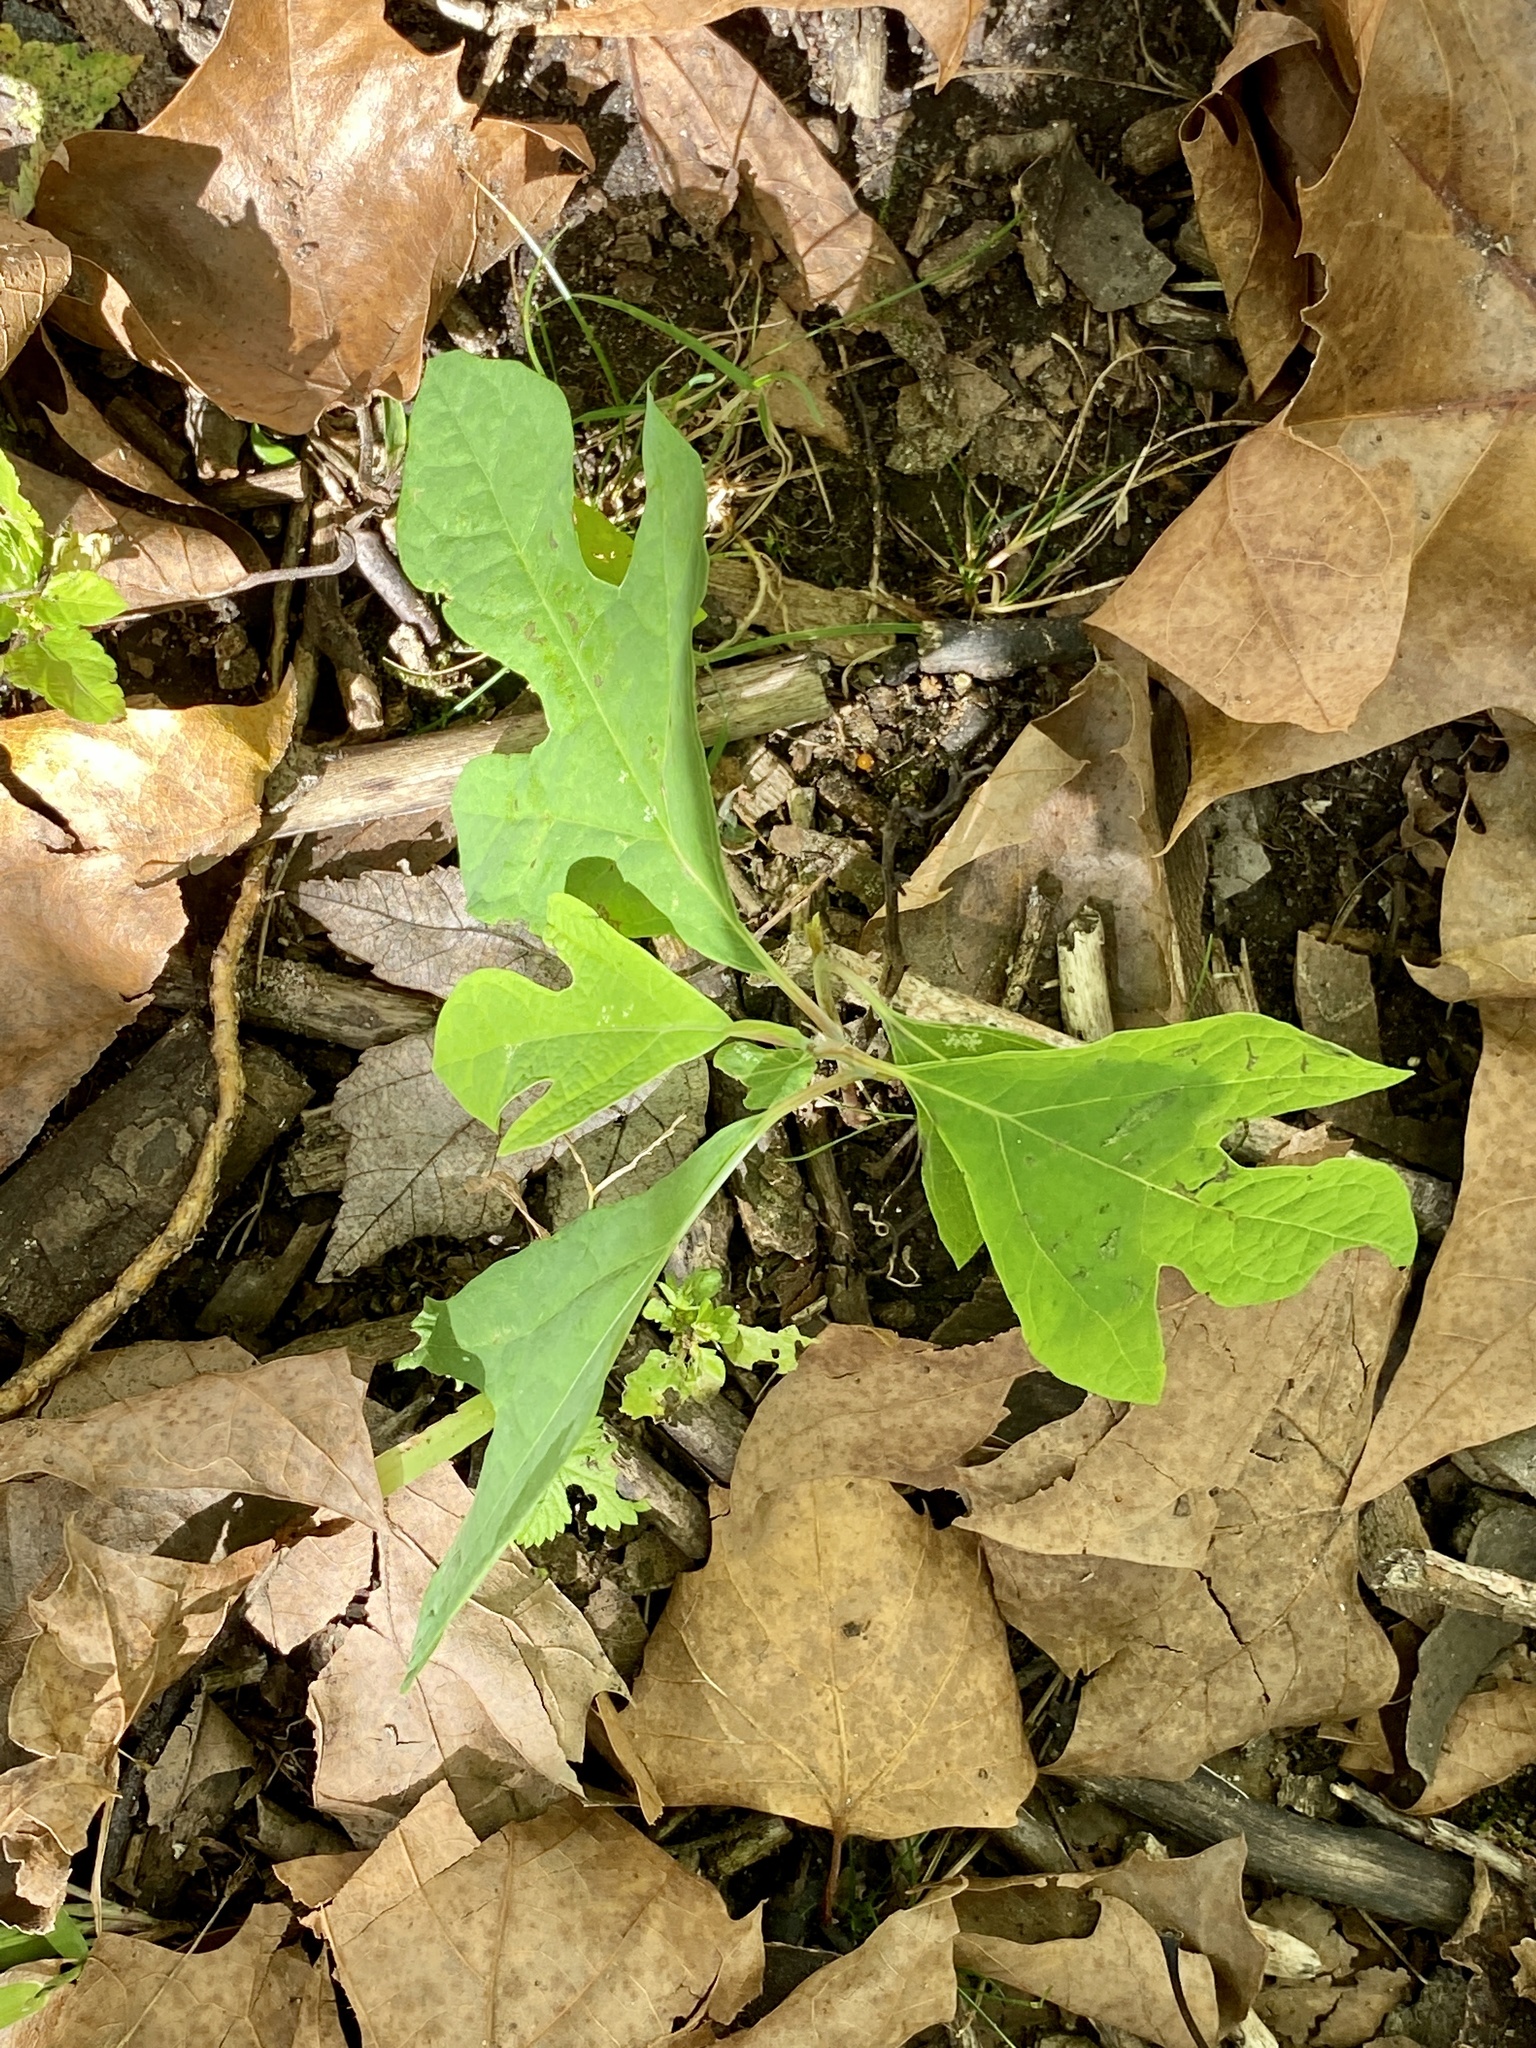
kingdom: Plantae
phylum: Tracheophyta
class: Magnoliopsida
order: Laurales
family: Lauraceae
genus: Sassafras
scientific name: Sassafras albidum
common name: Sassafras
